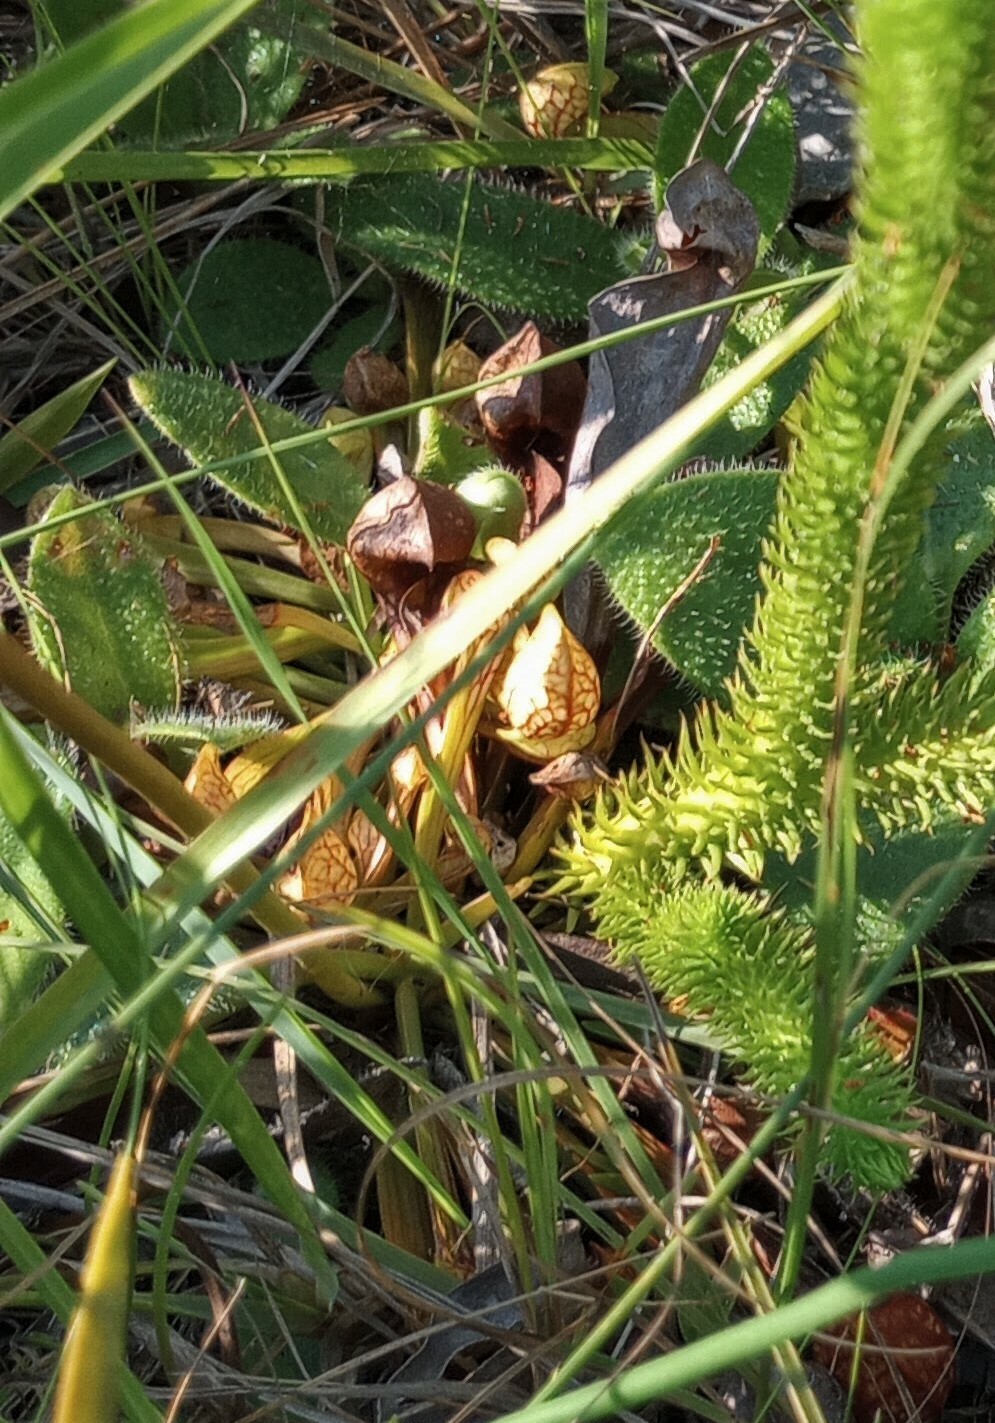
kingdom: Plantae
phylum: Tracheophyta
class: Magnoliopsida
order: Ericales
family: Sarraceniaceae
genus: Sarracenia
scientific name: Sarracenia psittacina
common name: Parrot pitcherplant
